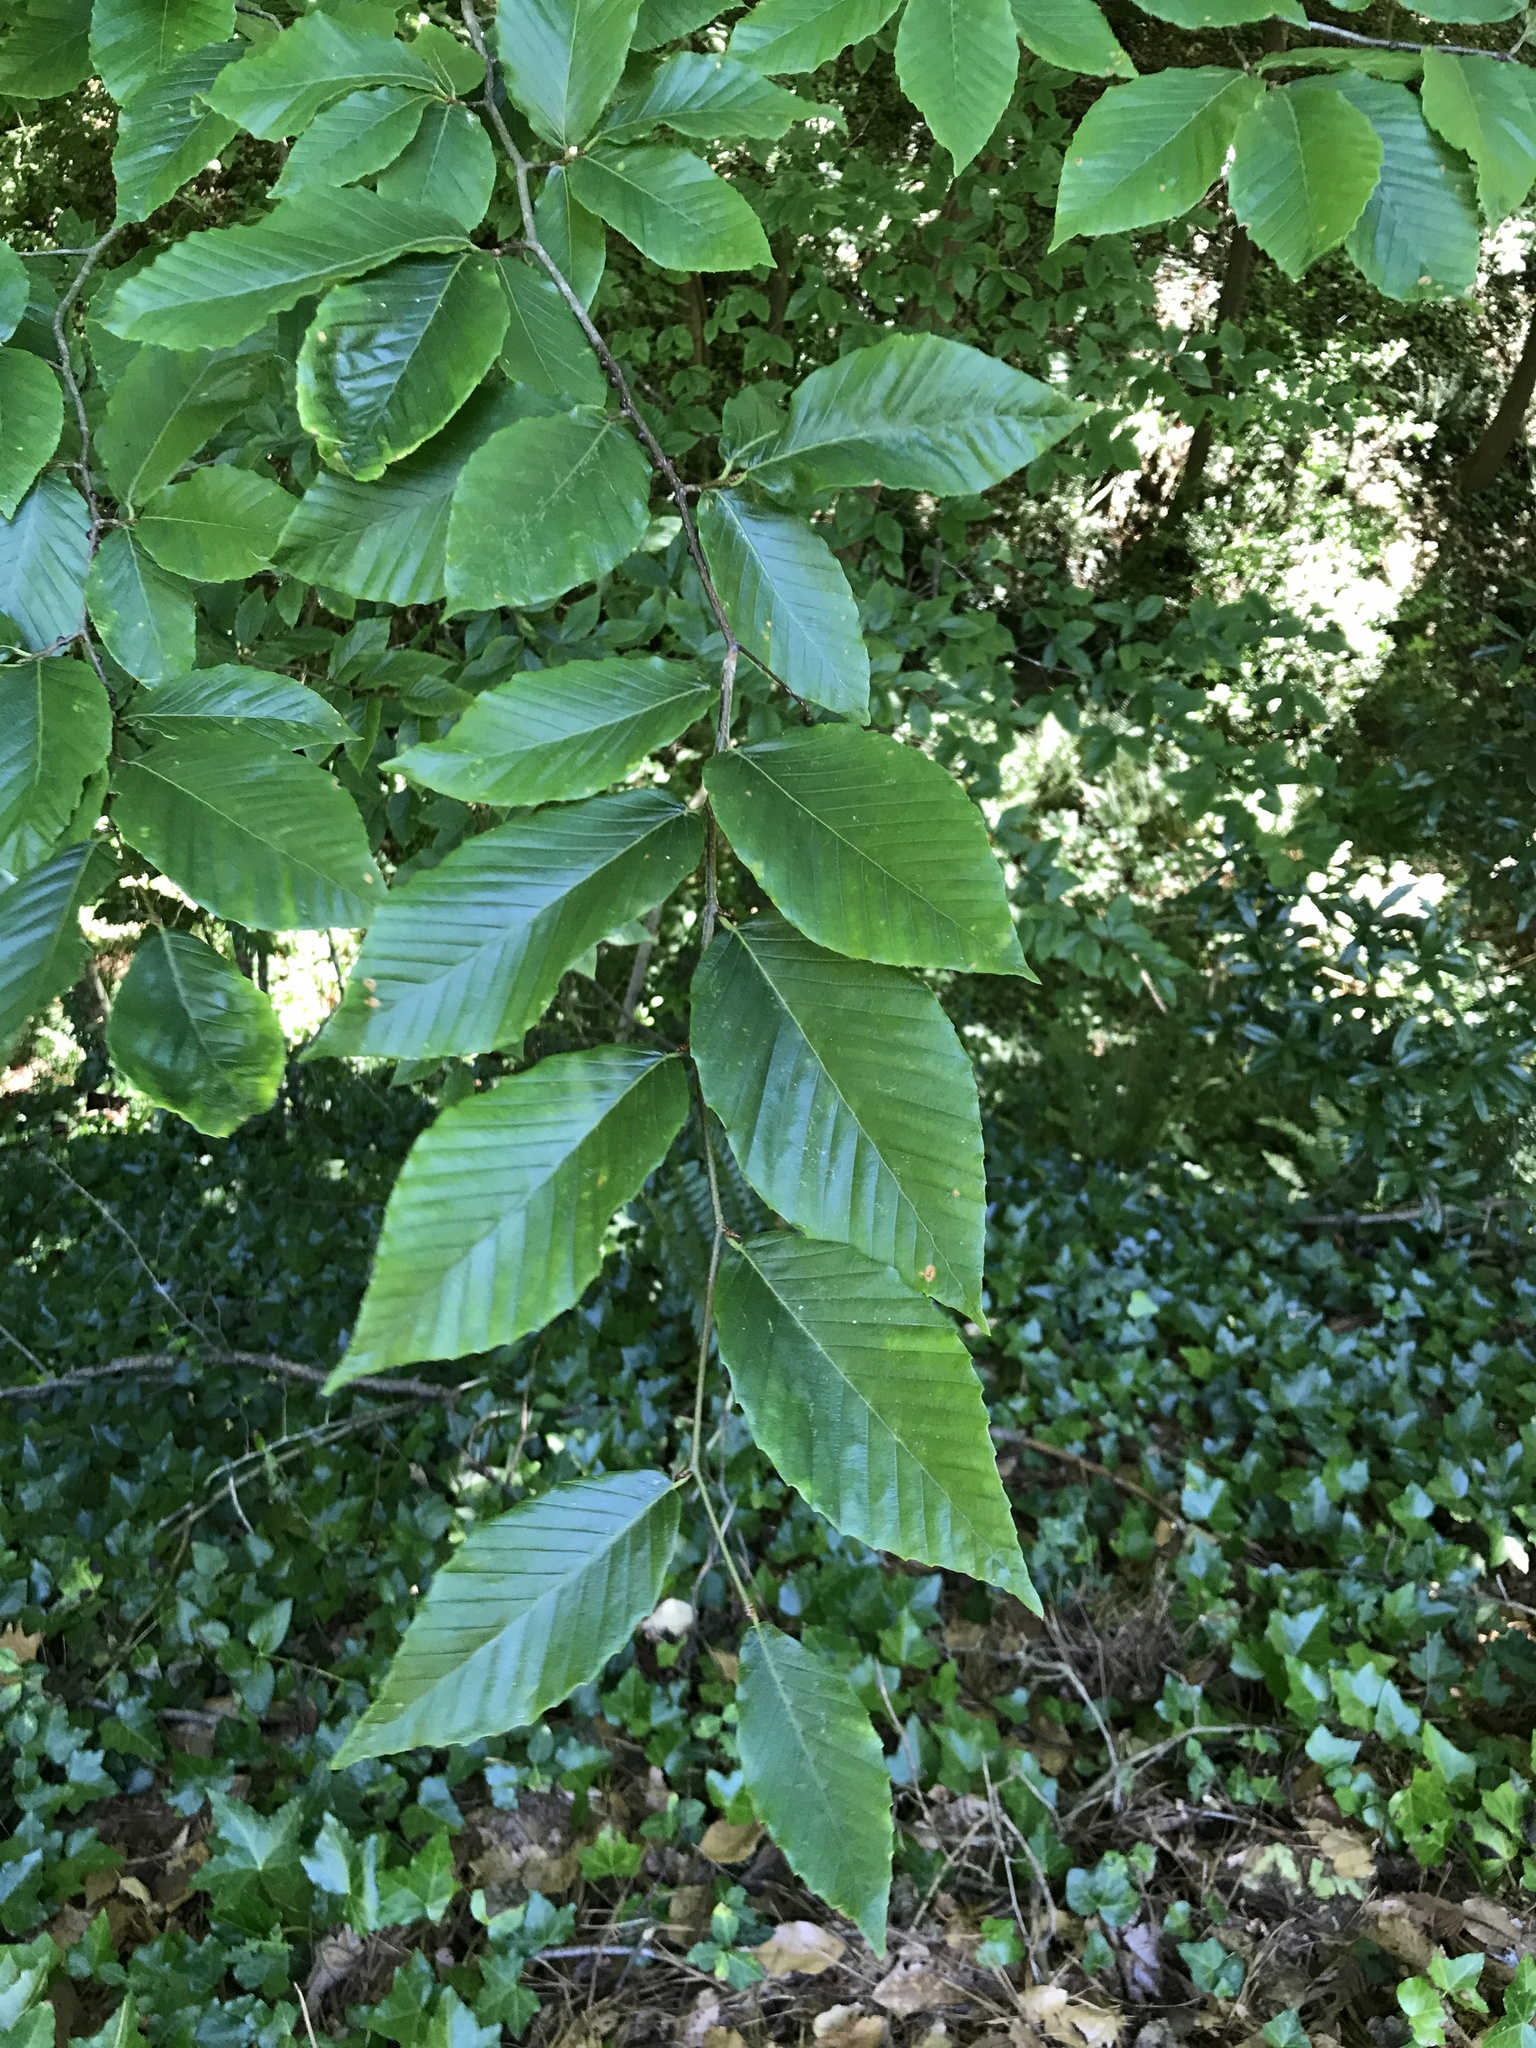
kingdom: Plantae
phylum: Tracheophyta
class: Magnoliopsida
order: Fagales
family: Fagaceae
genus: Fagus
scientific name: Fagus grandifolia
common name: American beech
